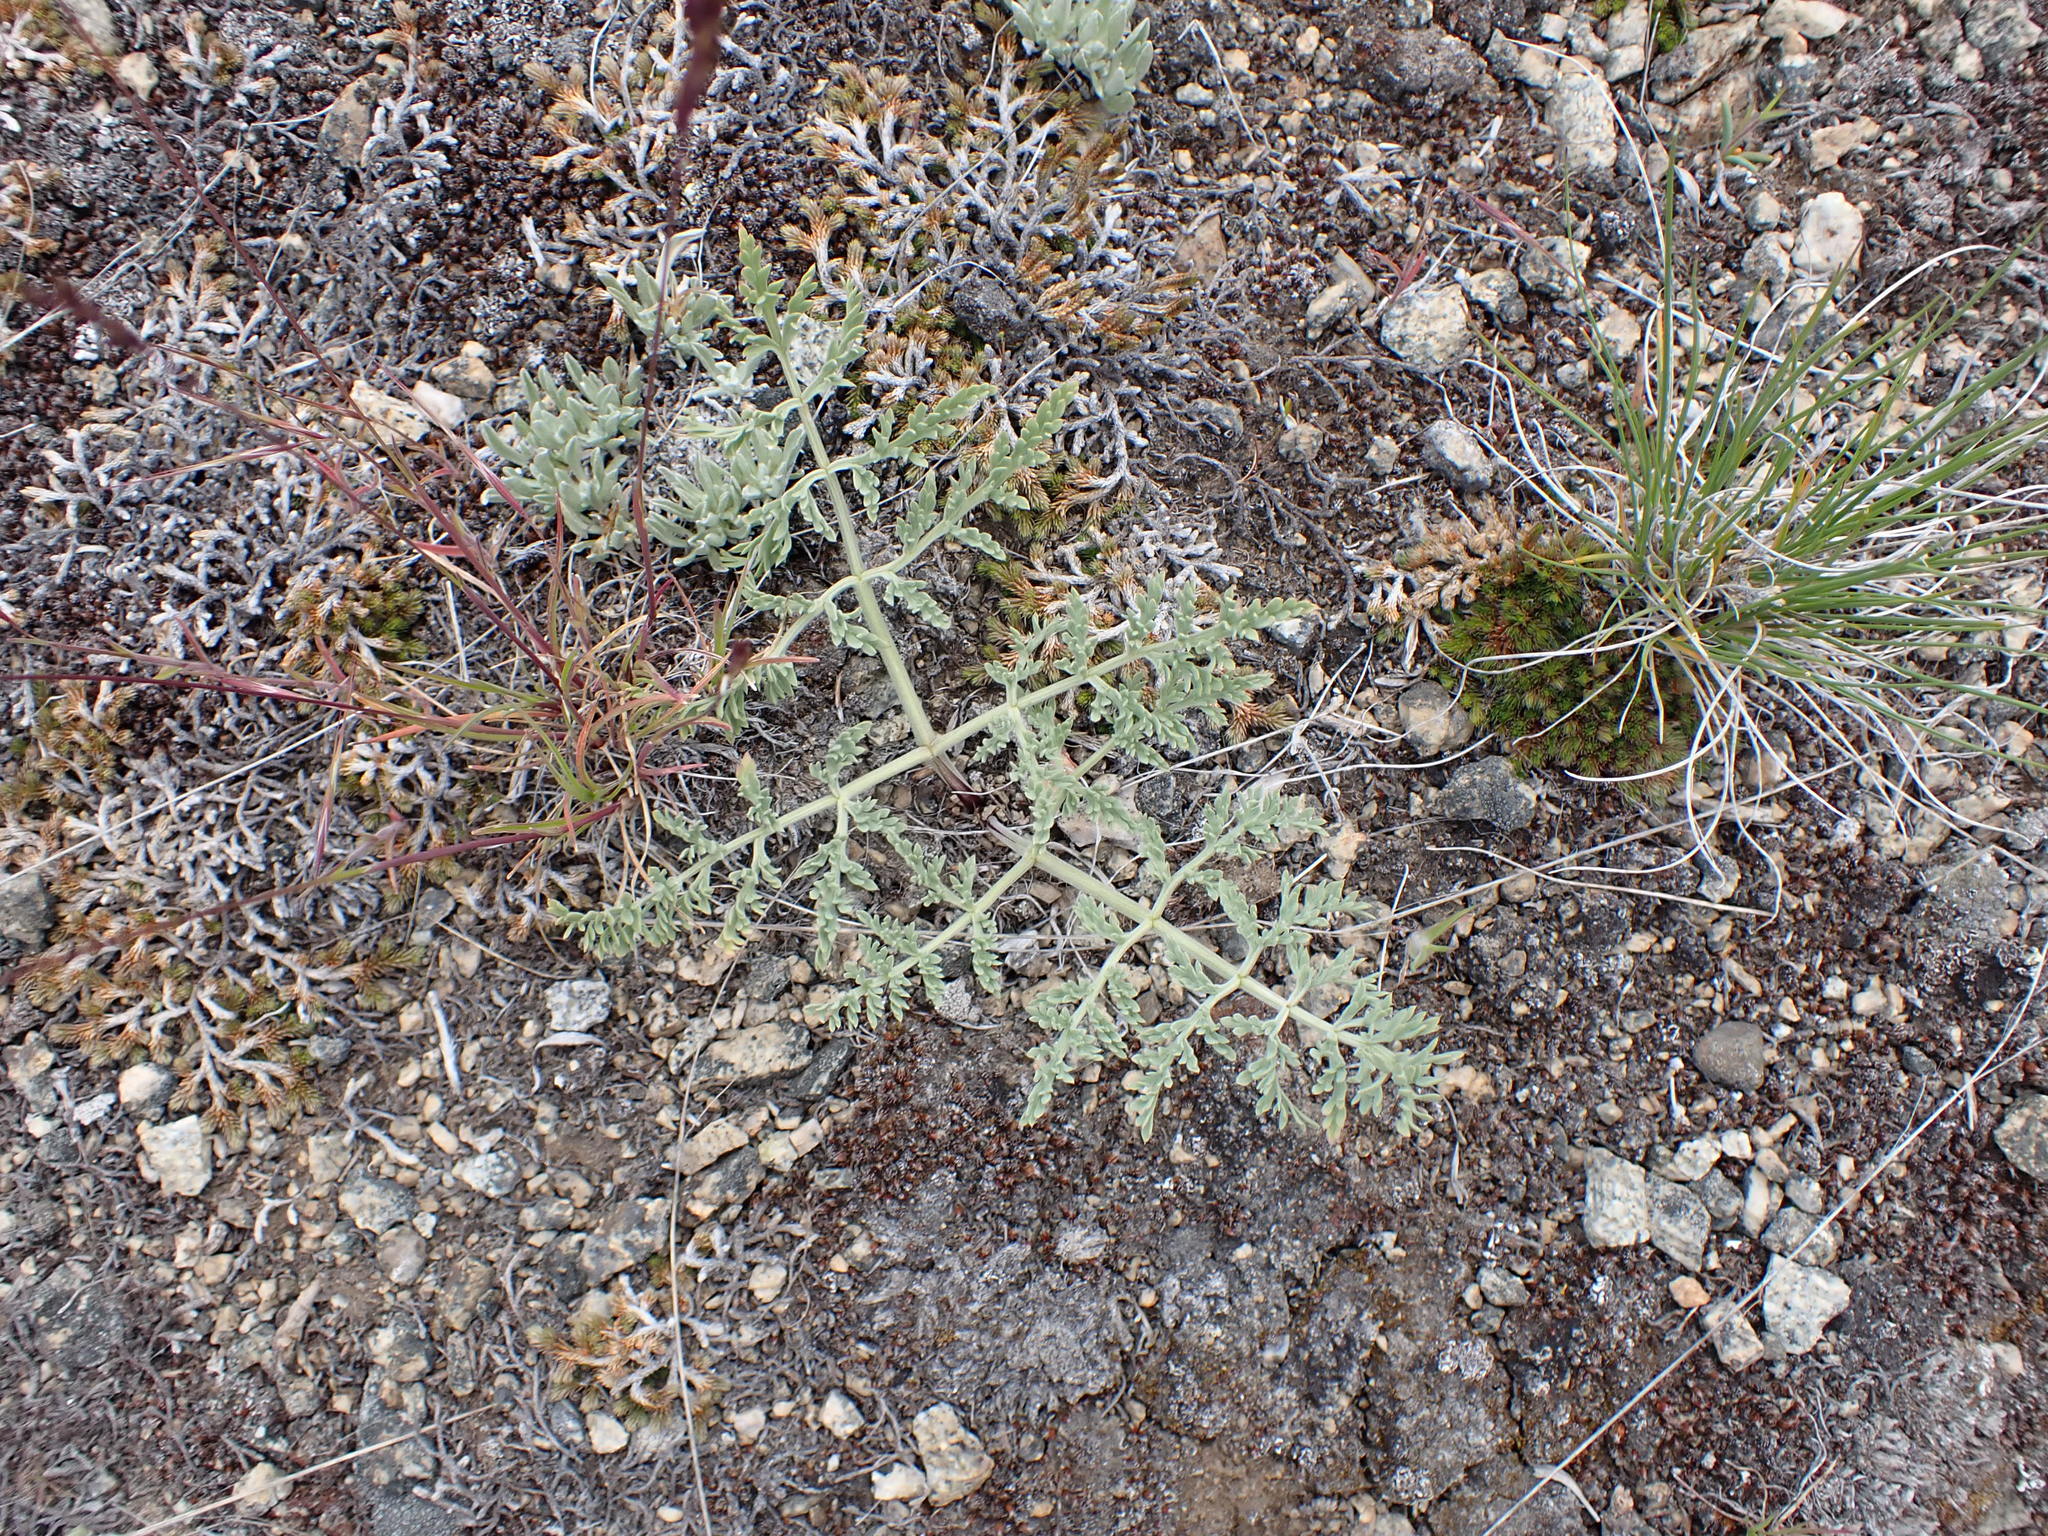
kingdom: Plantae
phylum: Tracheophyta
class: Magnoliopsida
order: Fabales
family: Fabaceae
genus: Astragalus
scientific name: Astragalus purshii
